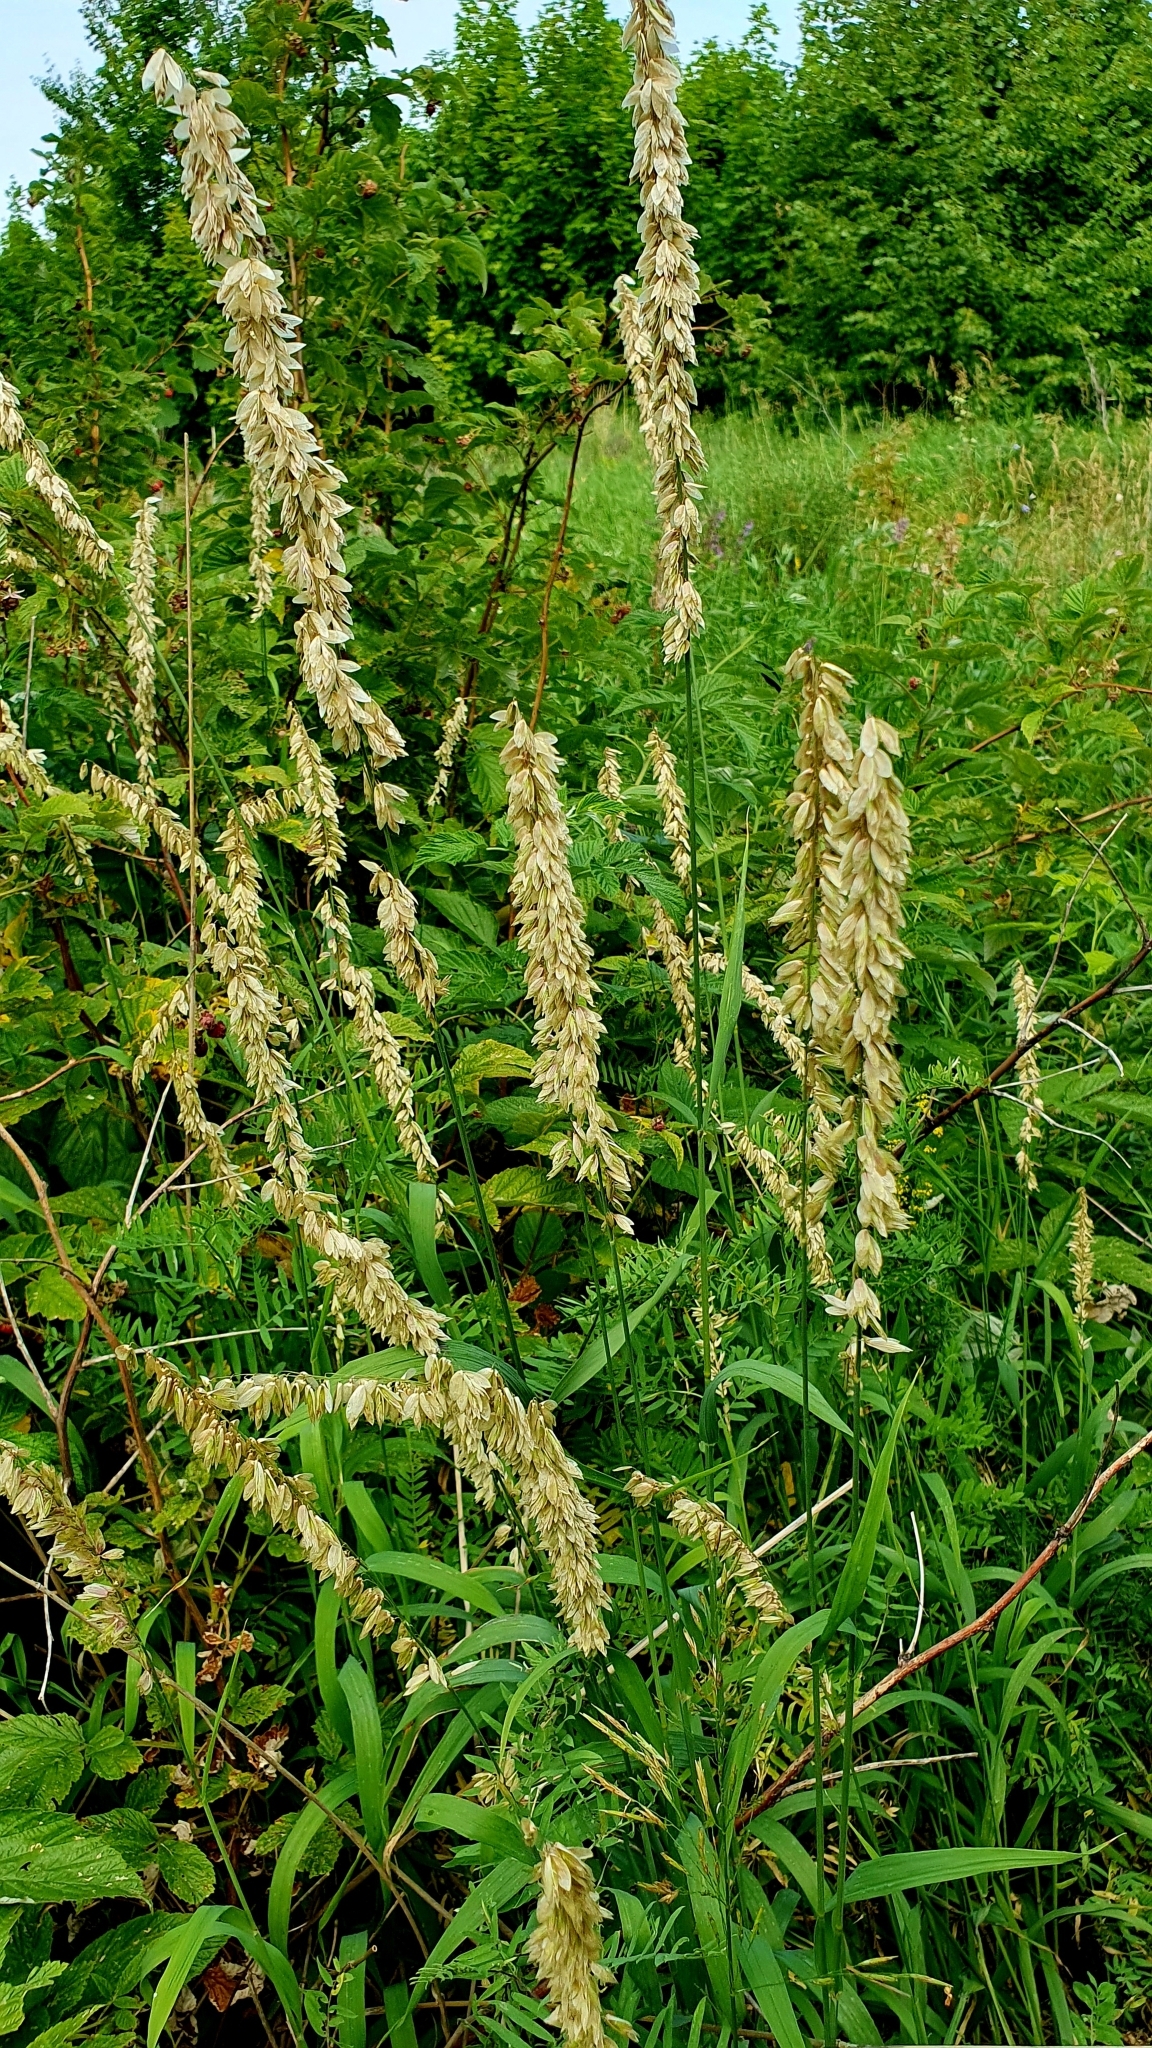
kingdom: Plantae
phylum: Tracheophyta
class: Liliopsida
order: Poales
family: Poaceae
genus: Melica
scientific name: Melica altissima
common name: Siberian melicgrass
